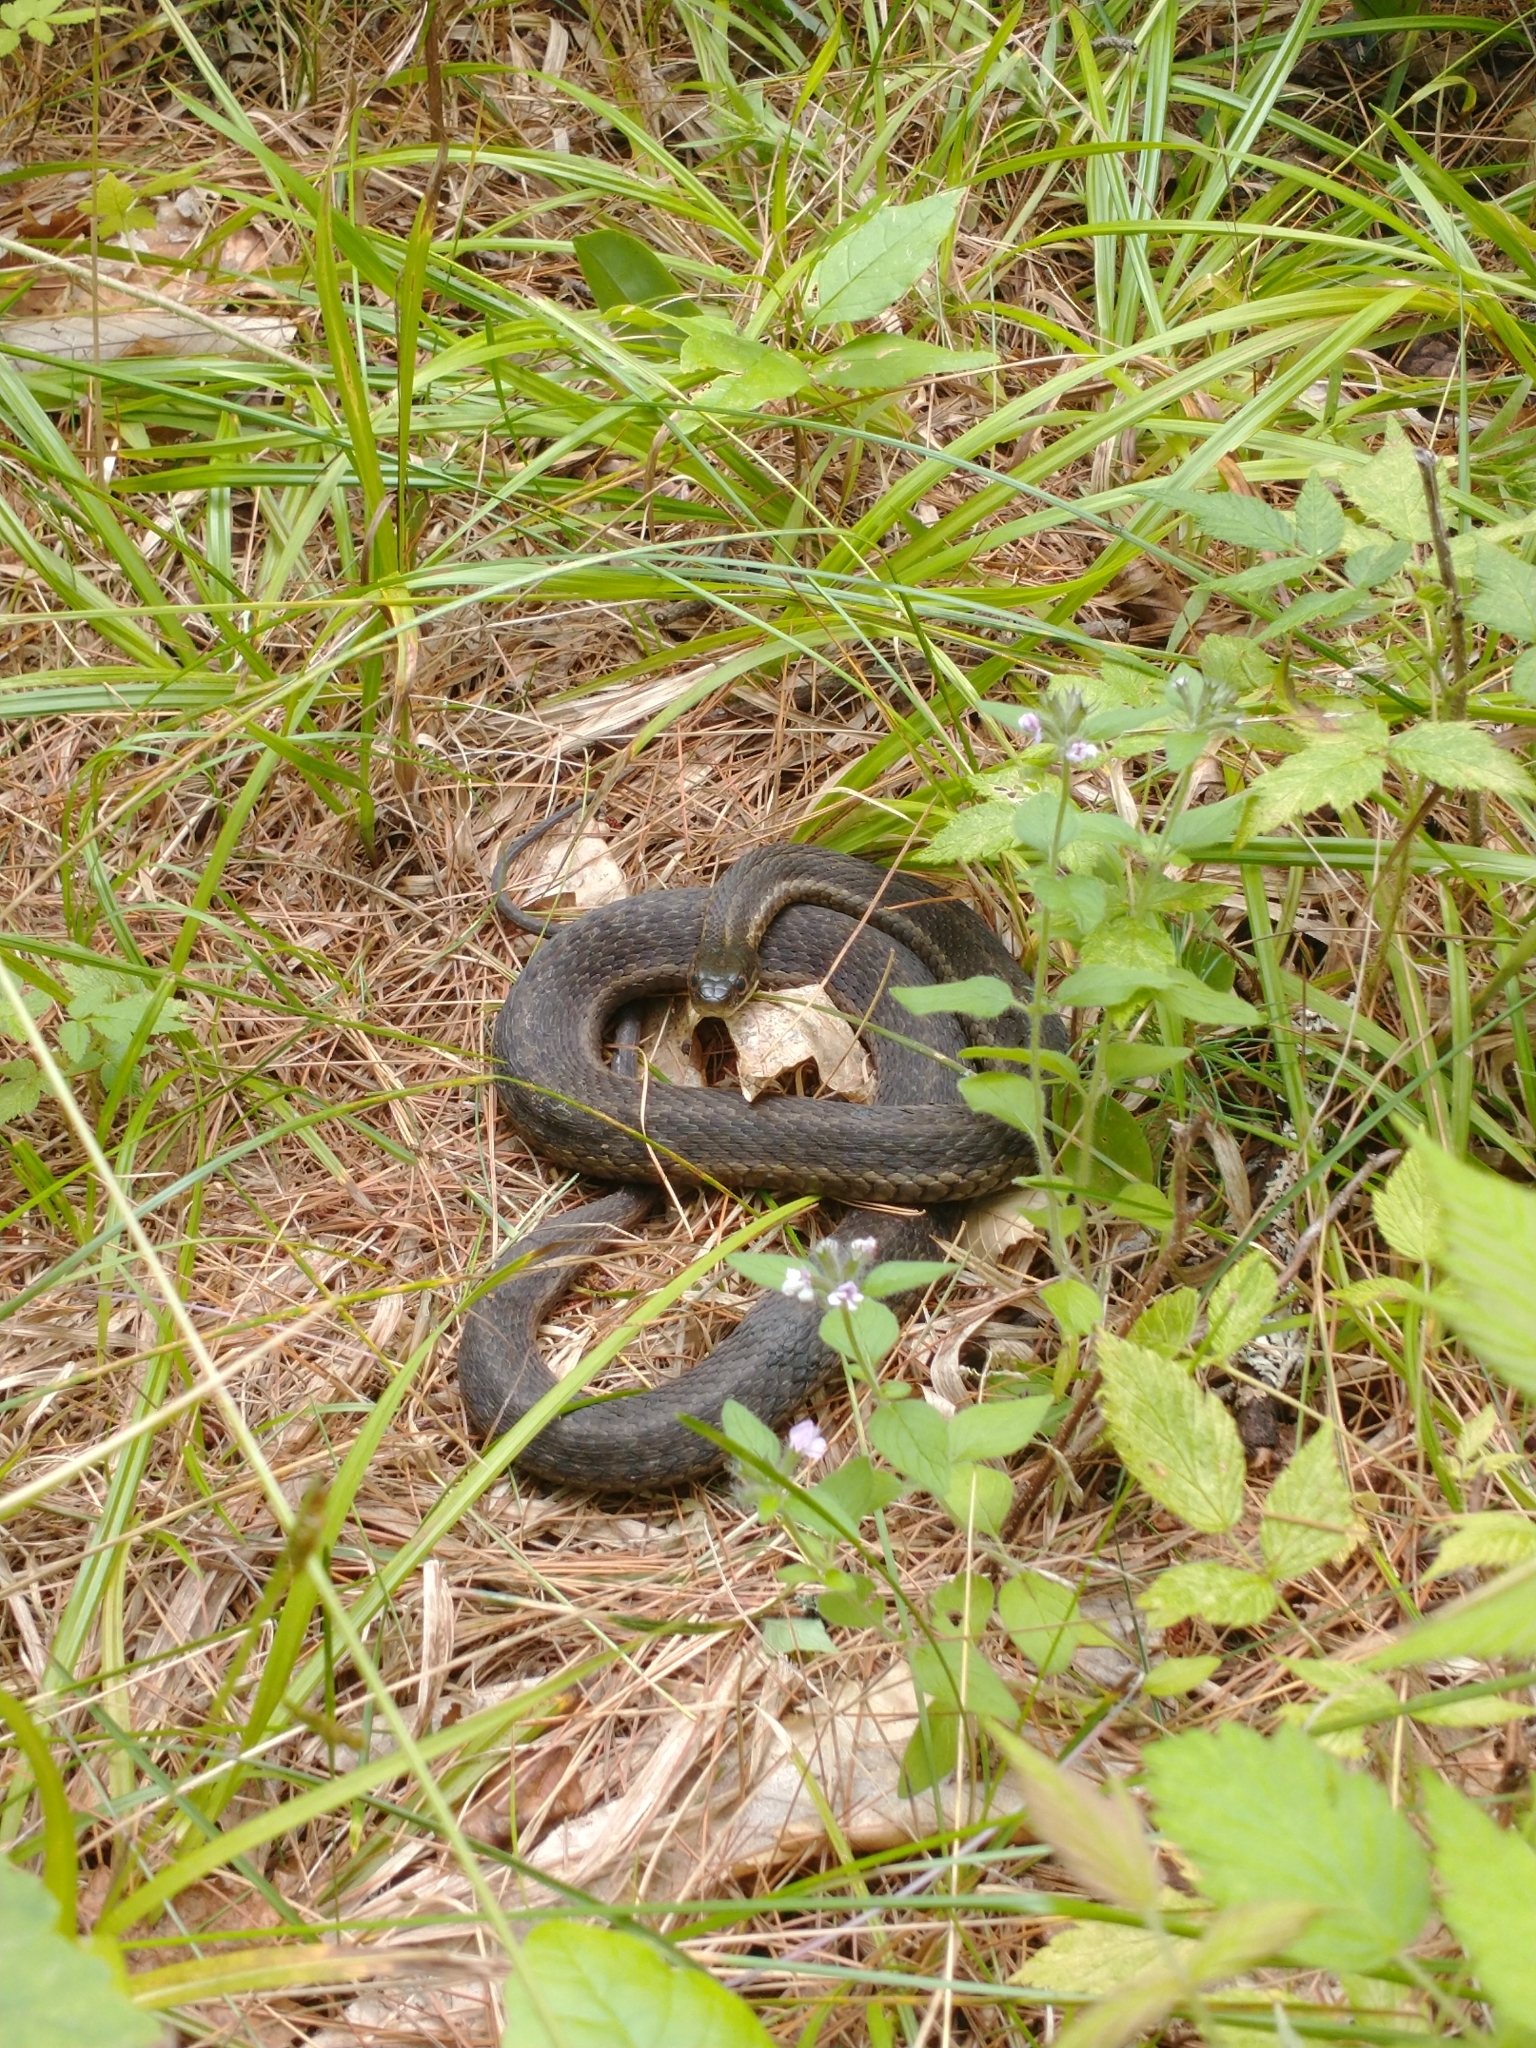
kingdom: Animalia
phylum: Chordata
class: Squamata
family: Colubridae
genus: Thamnophis
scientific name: Thamnophis sirtalis
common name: Common garter snake
